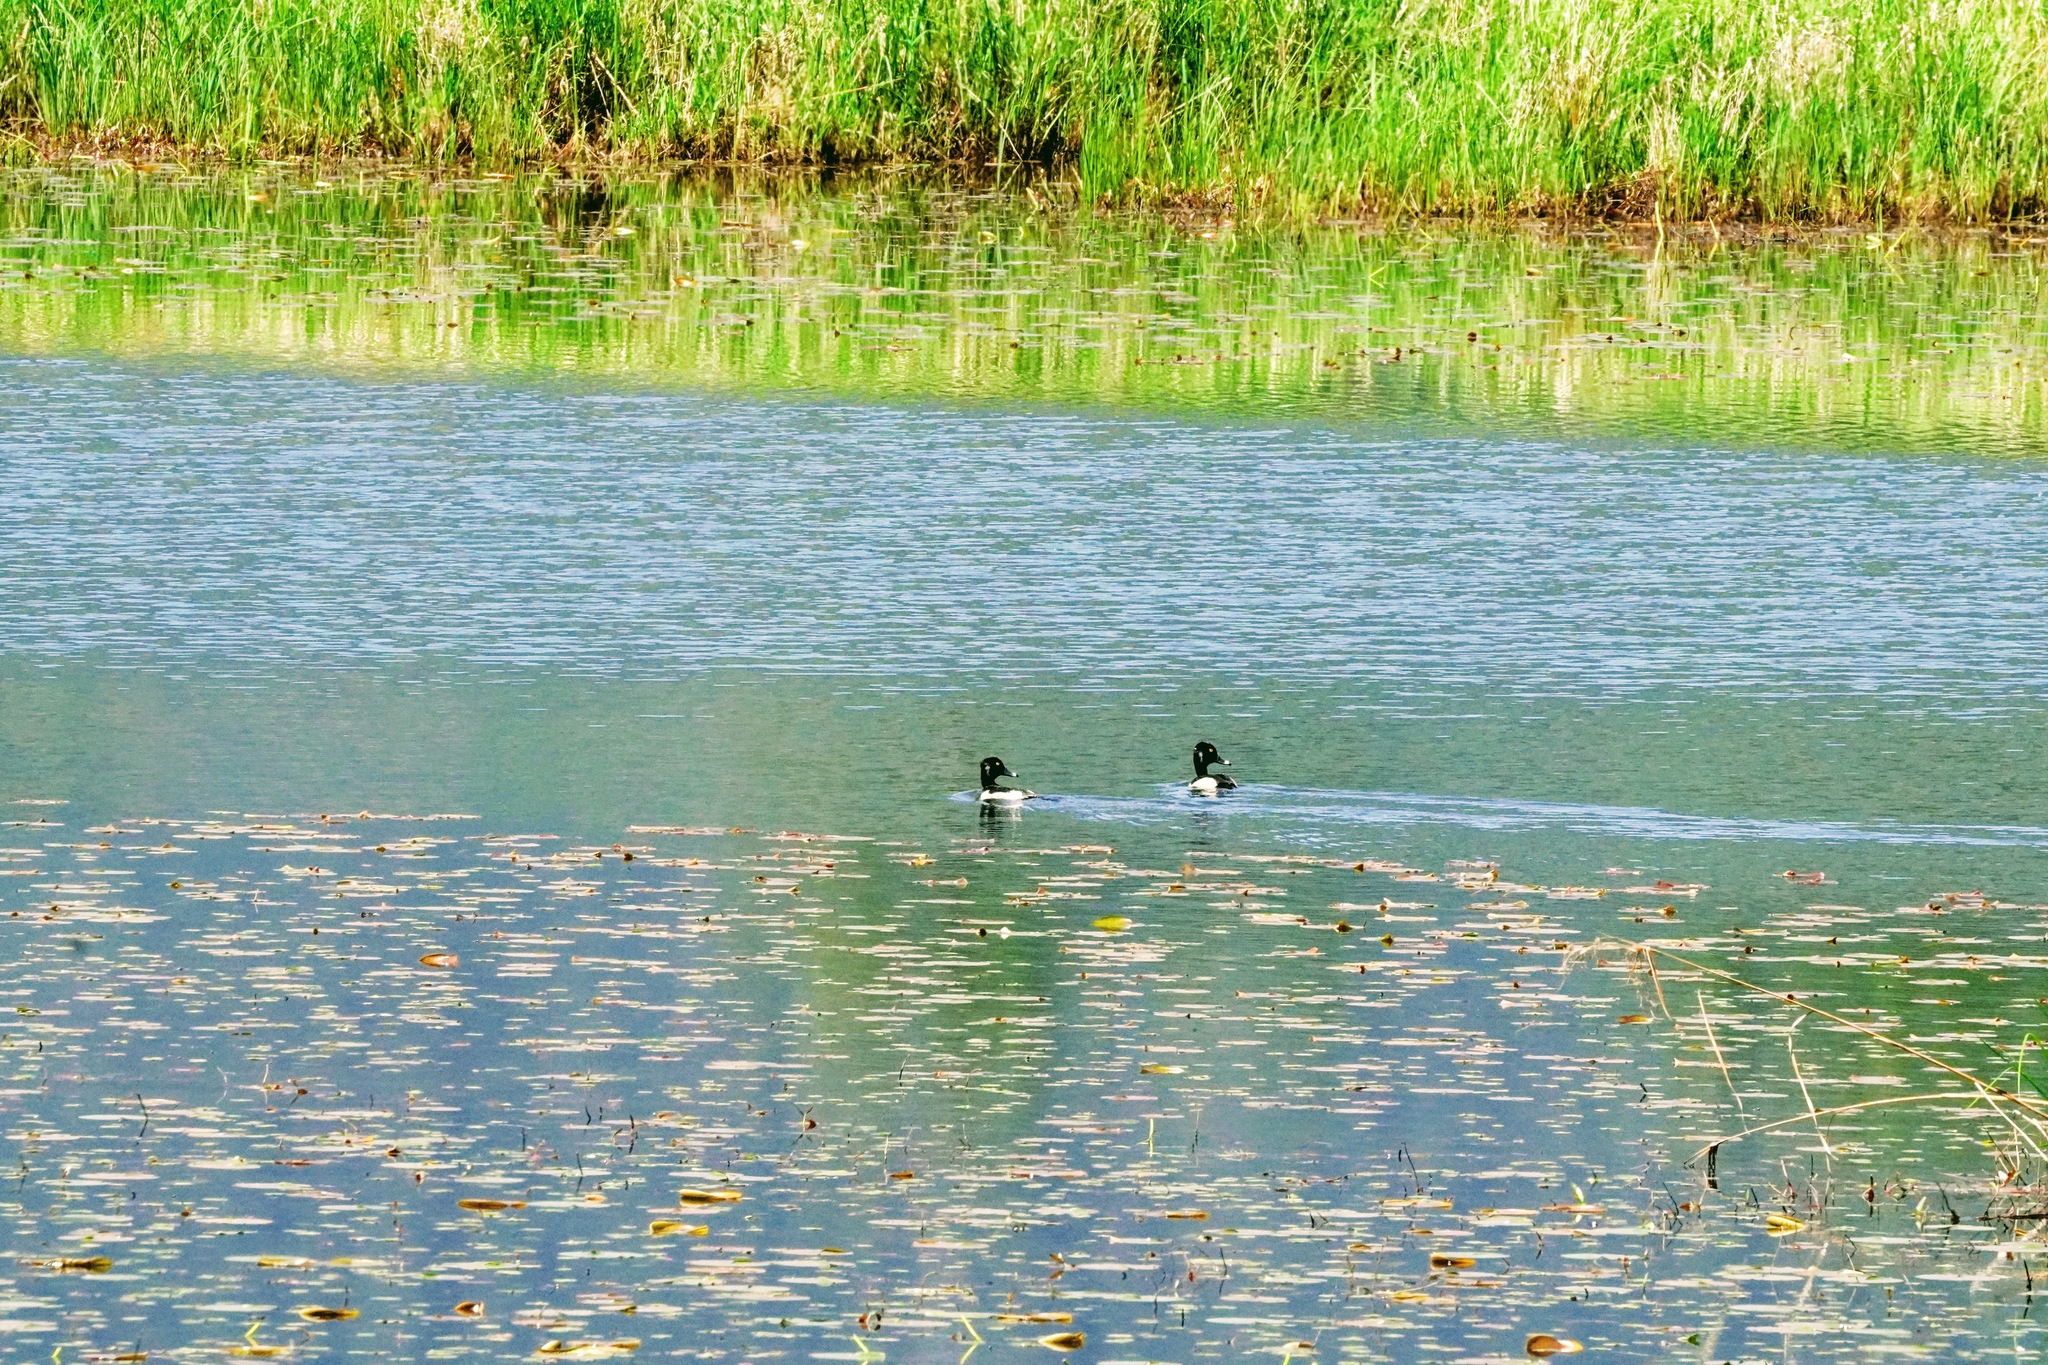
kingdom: Animalia
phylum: Chordata
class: Aves
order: Anseriformes
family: Anatidae
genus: Aythya
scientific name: Aythya collaris
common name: Ring-necked duck
